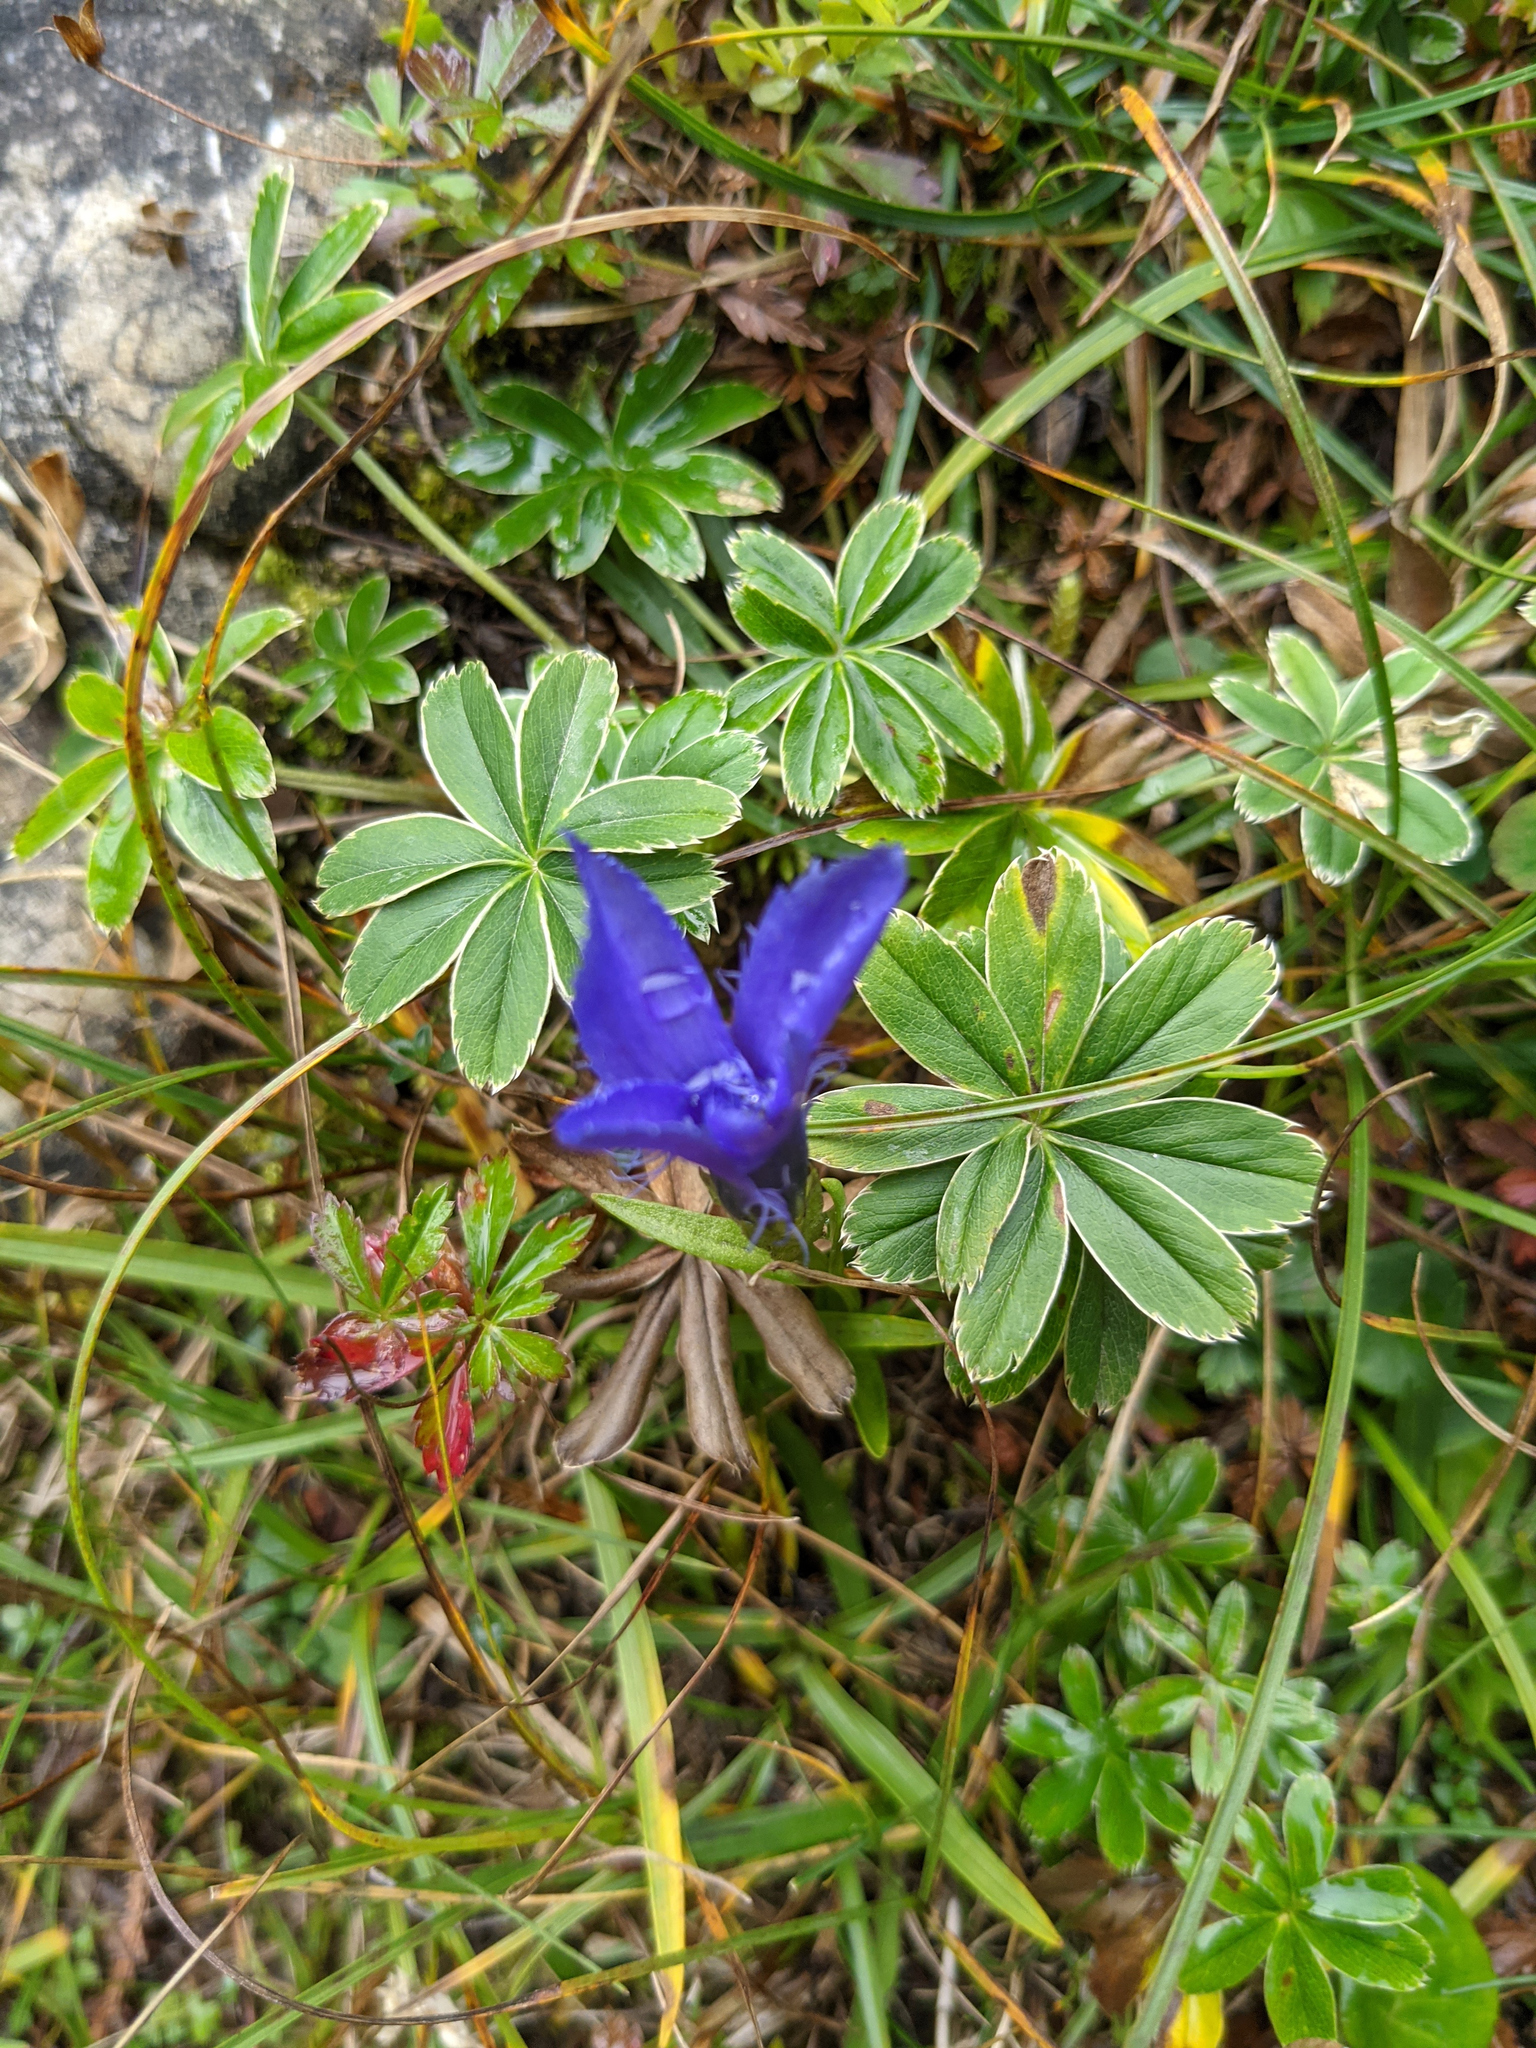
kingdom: Plantae
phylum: Tracheophyta
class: Magnoliopsida
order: Gentianales
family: Gentianaceae
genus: Gentianopsis
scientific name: Gentianopsis ciliata
